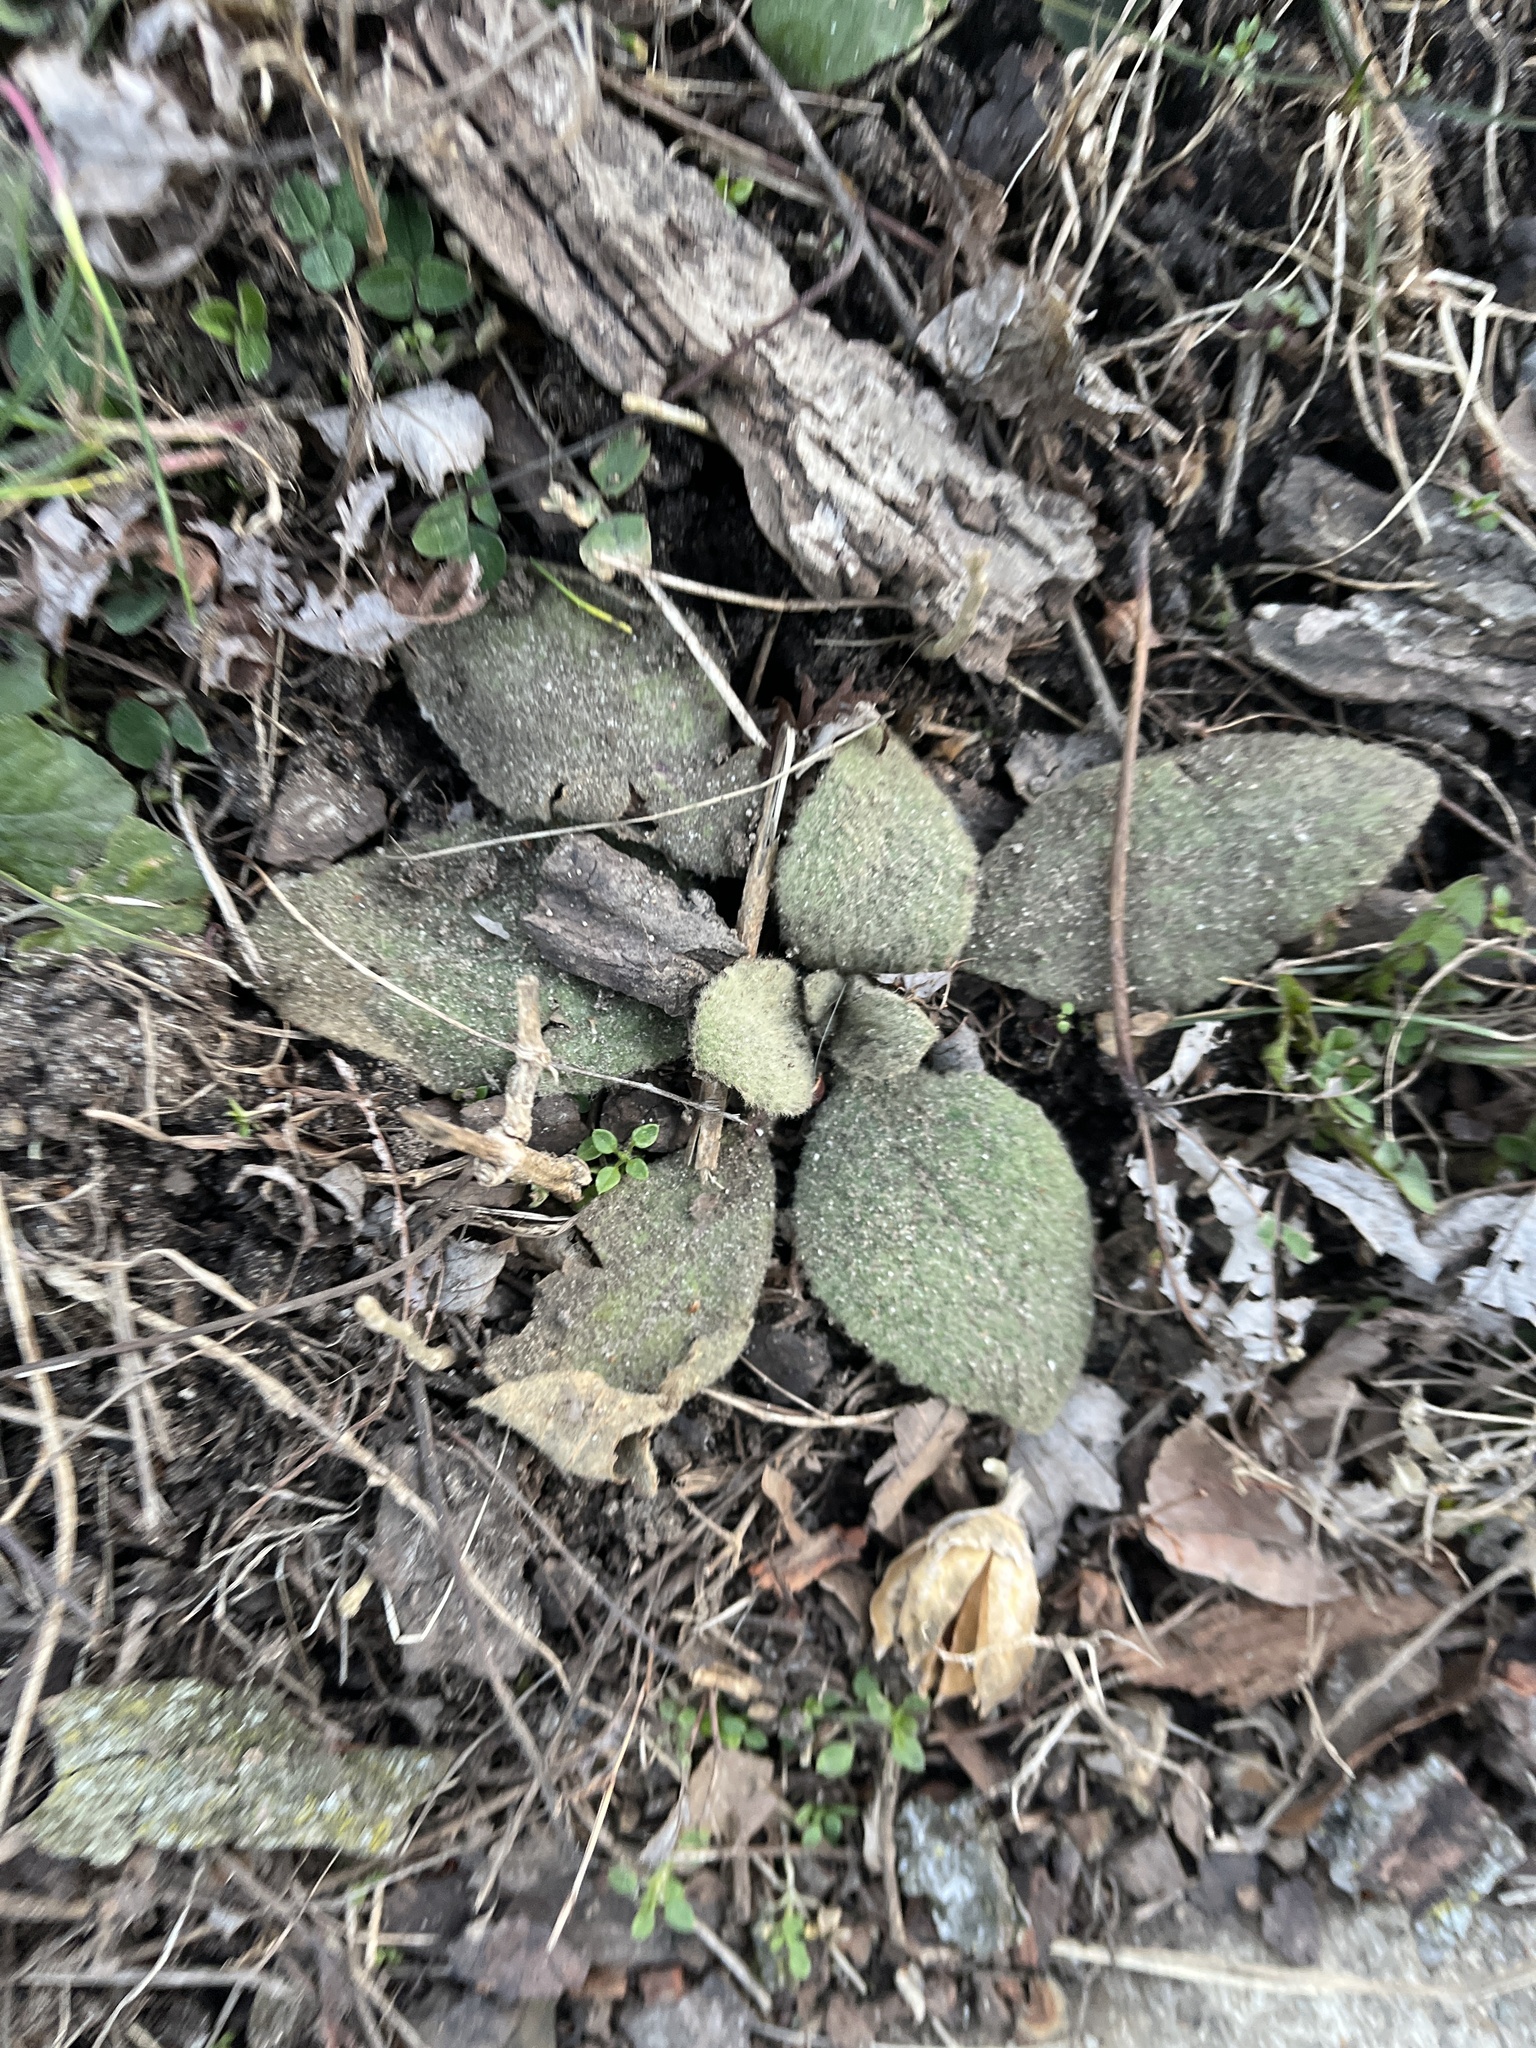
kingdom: Plantae
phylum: Tracheophyta
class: Magnoliopsida
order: Lamiales
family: Scrophulariaceae
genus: Verbascum
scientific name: Verbascum thapsus
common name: Common mullein
